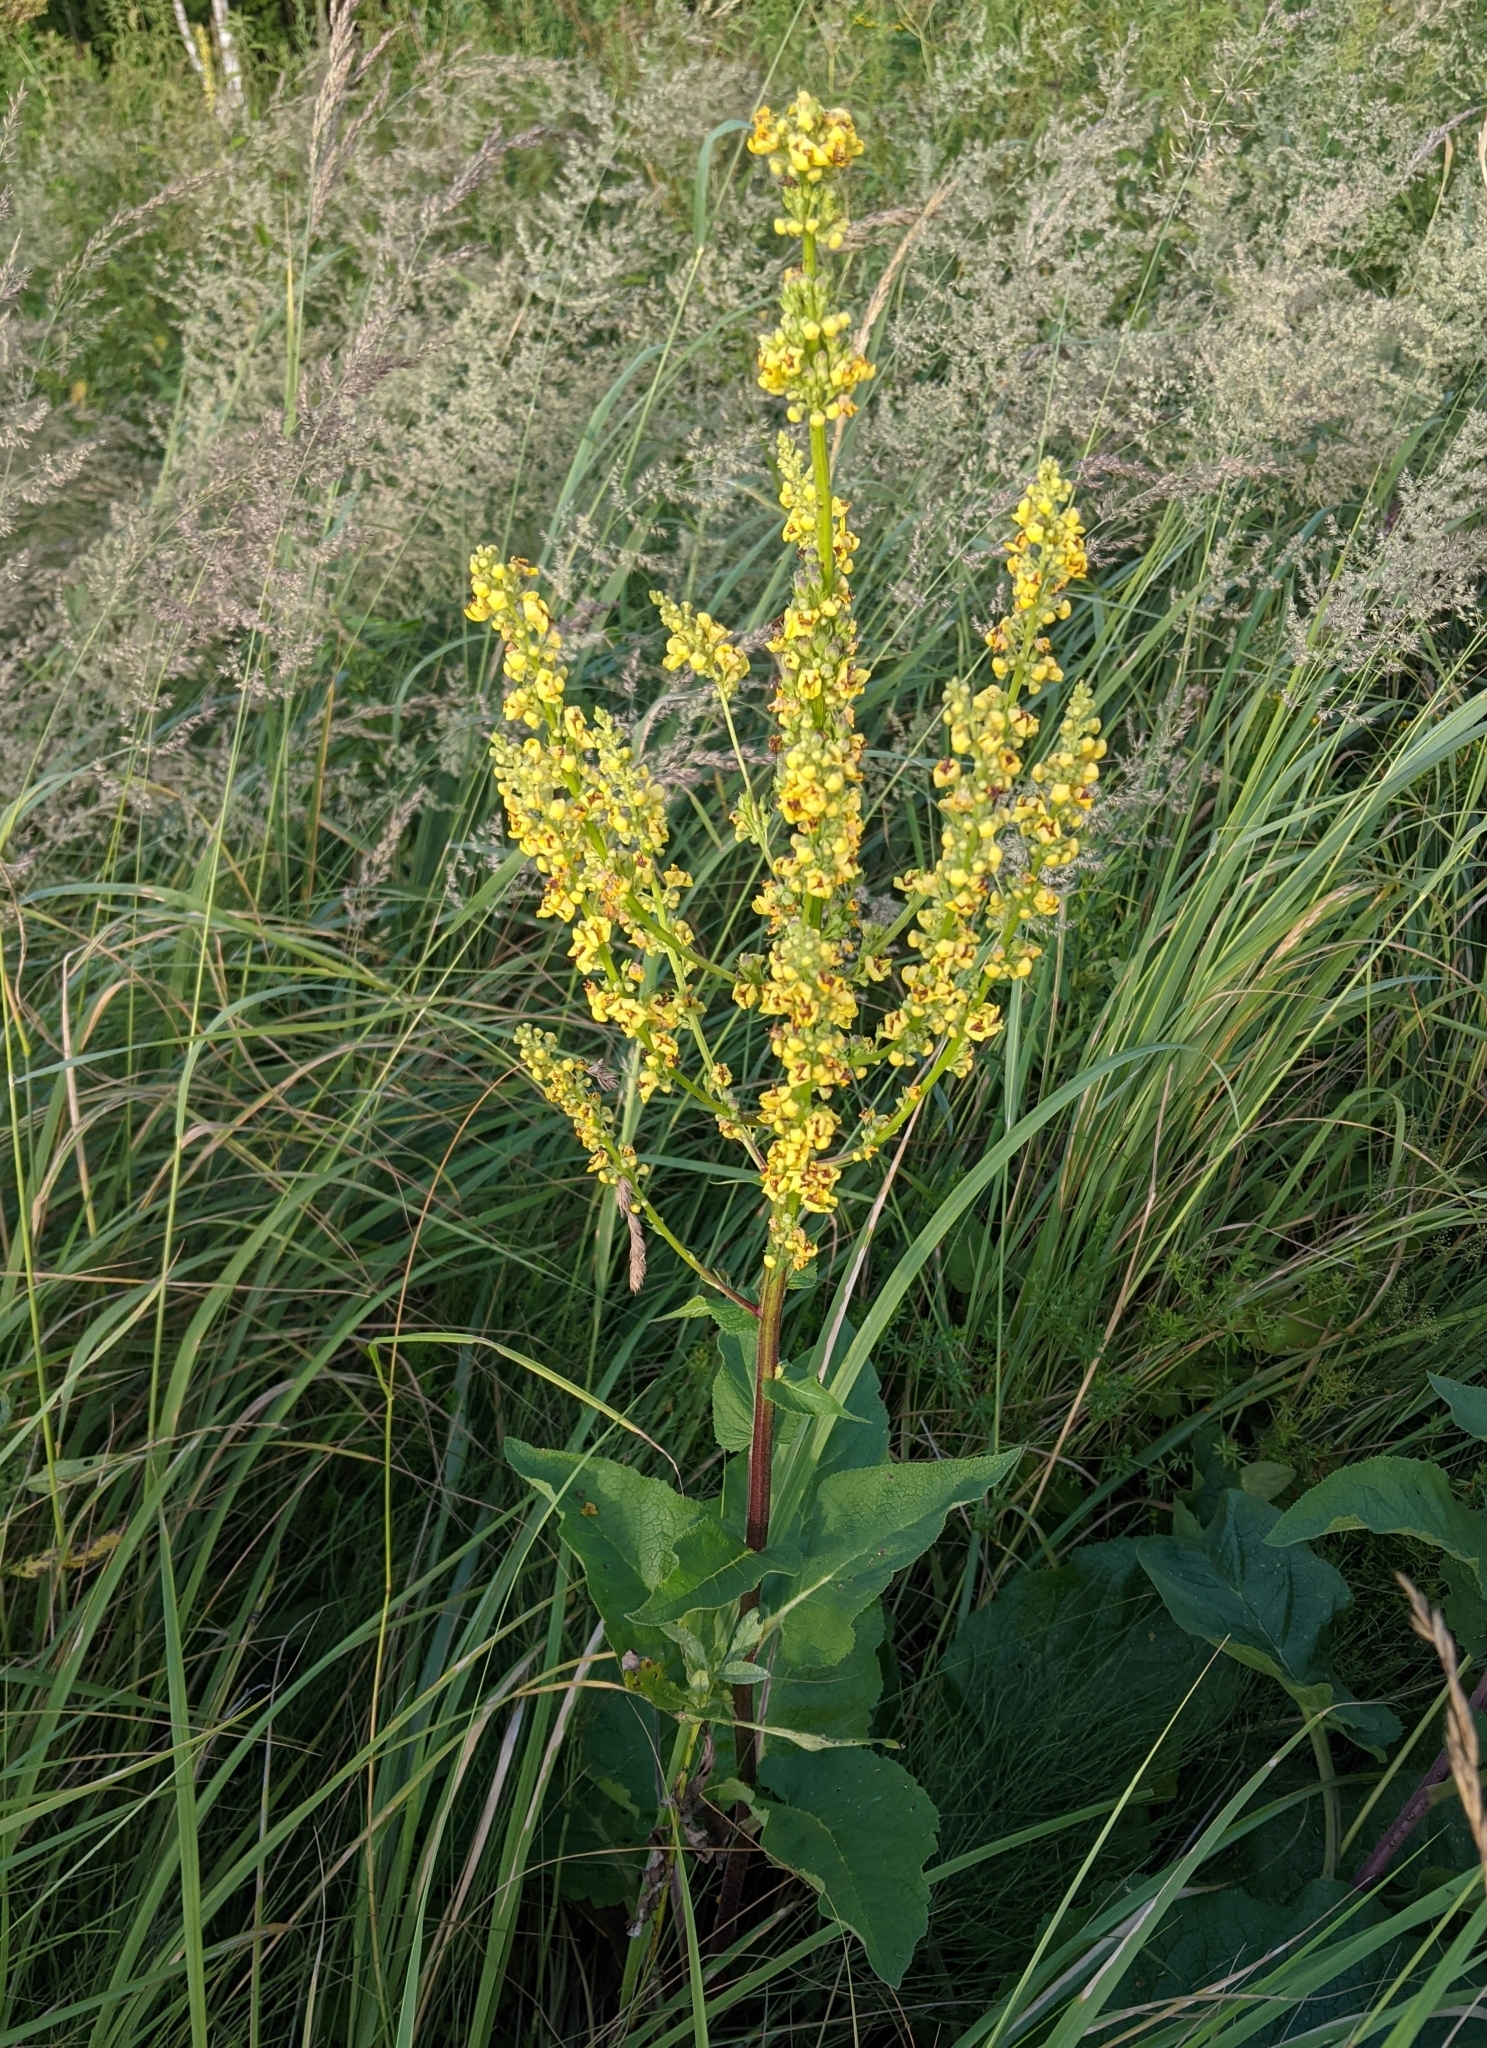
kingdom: Plantae
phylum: Tracheophyta
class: Magnoliopsida
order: Lamiales
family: Scrophulariaceae
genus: Verbascum
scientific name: Verbascum nigrum
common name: Dark mullein
